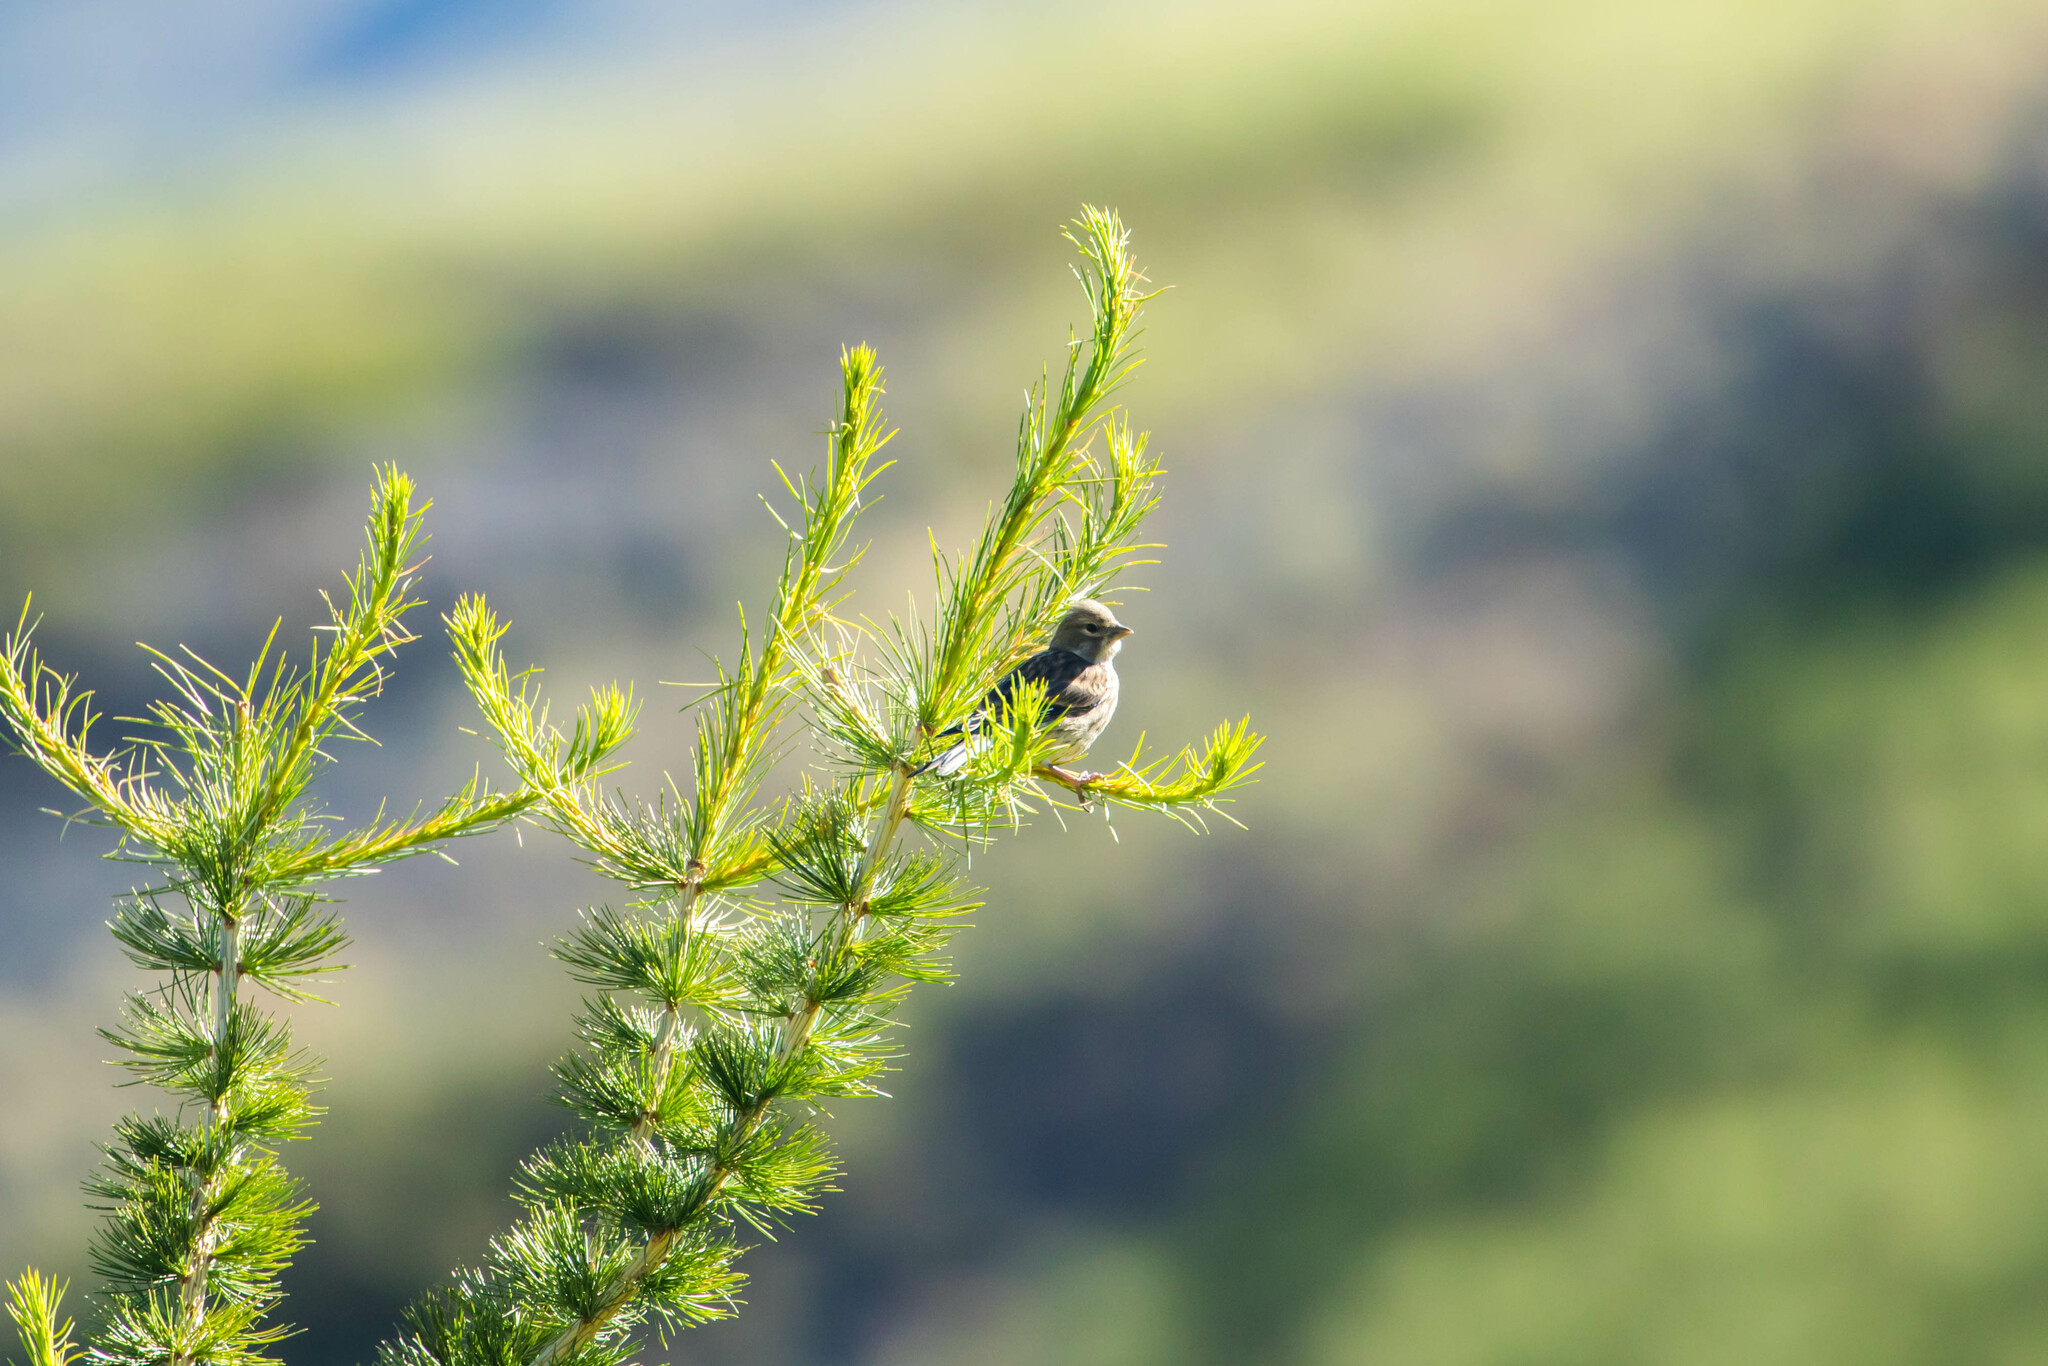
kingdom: Animalia
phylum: Chordata
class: Aves
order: Passeriformes
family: Fringillidae
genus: Linaria
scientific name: Linaria cannabina
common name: Common linnet
